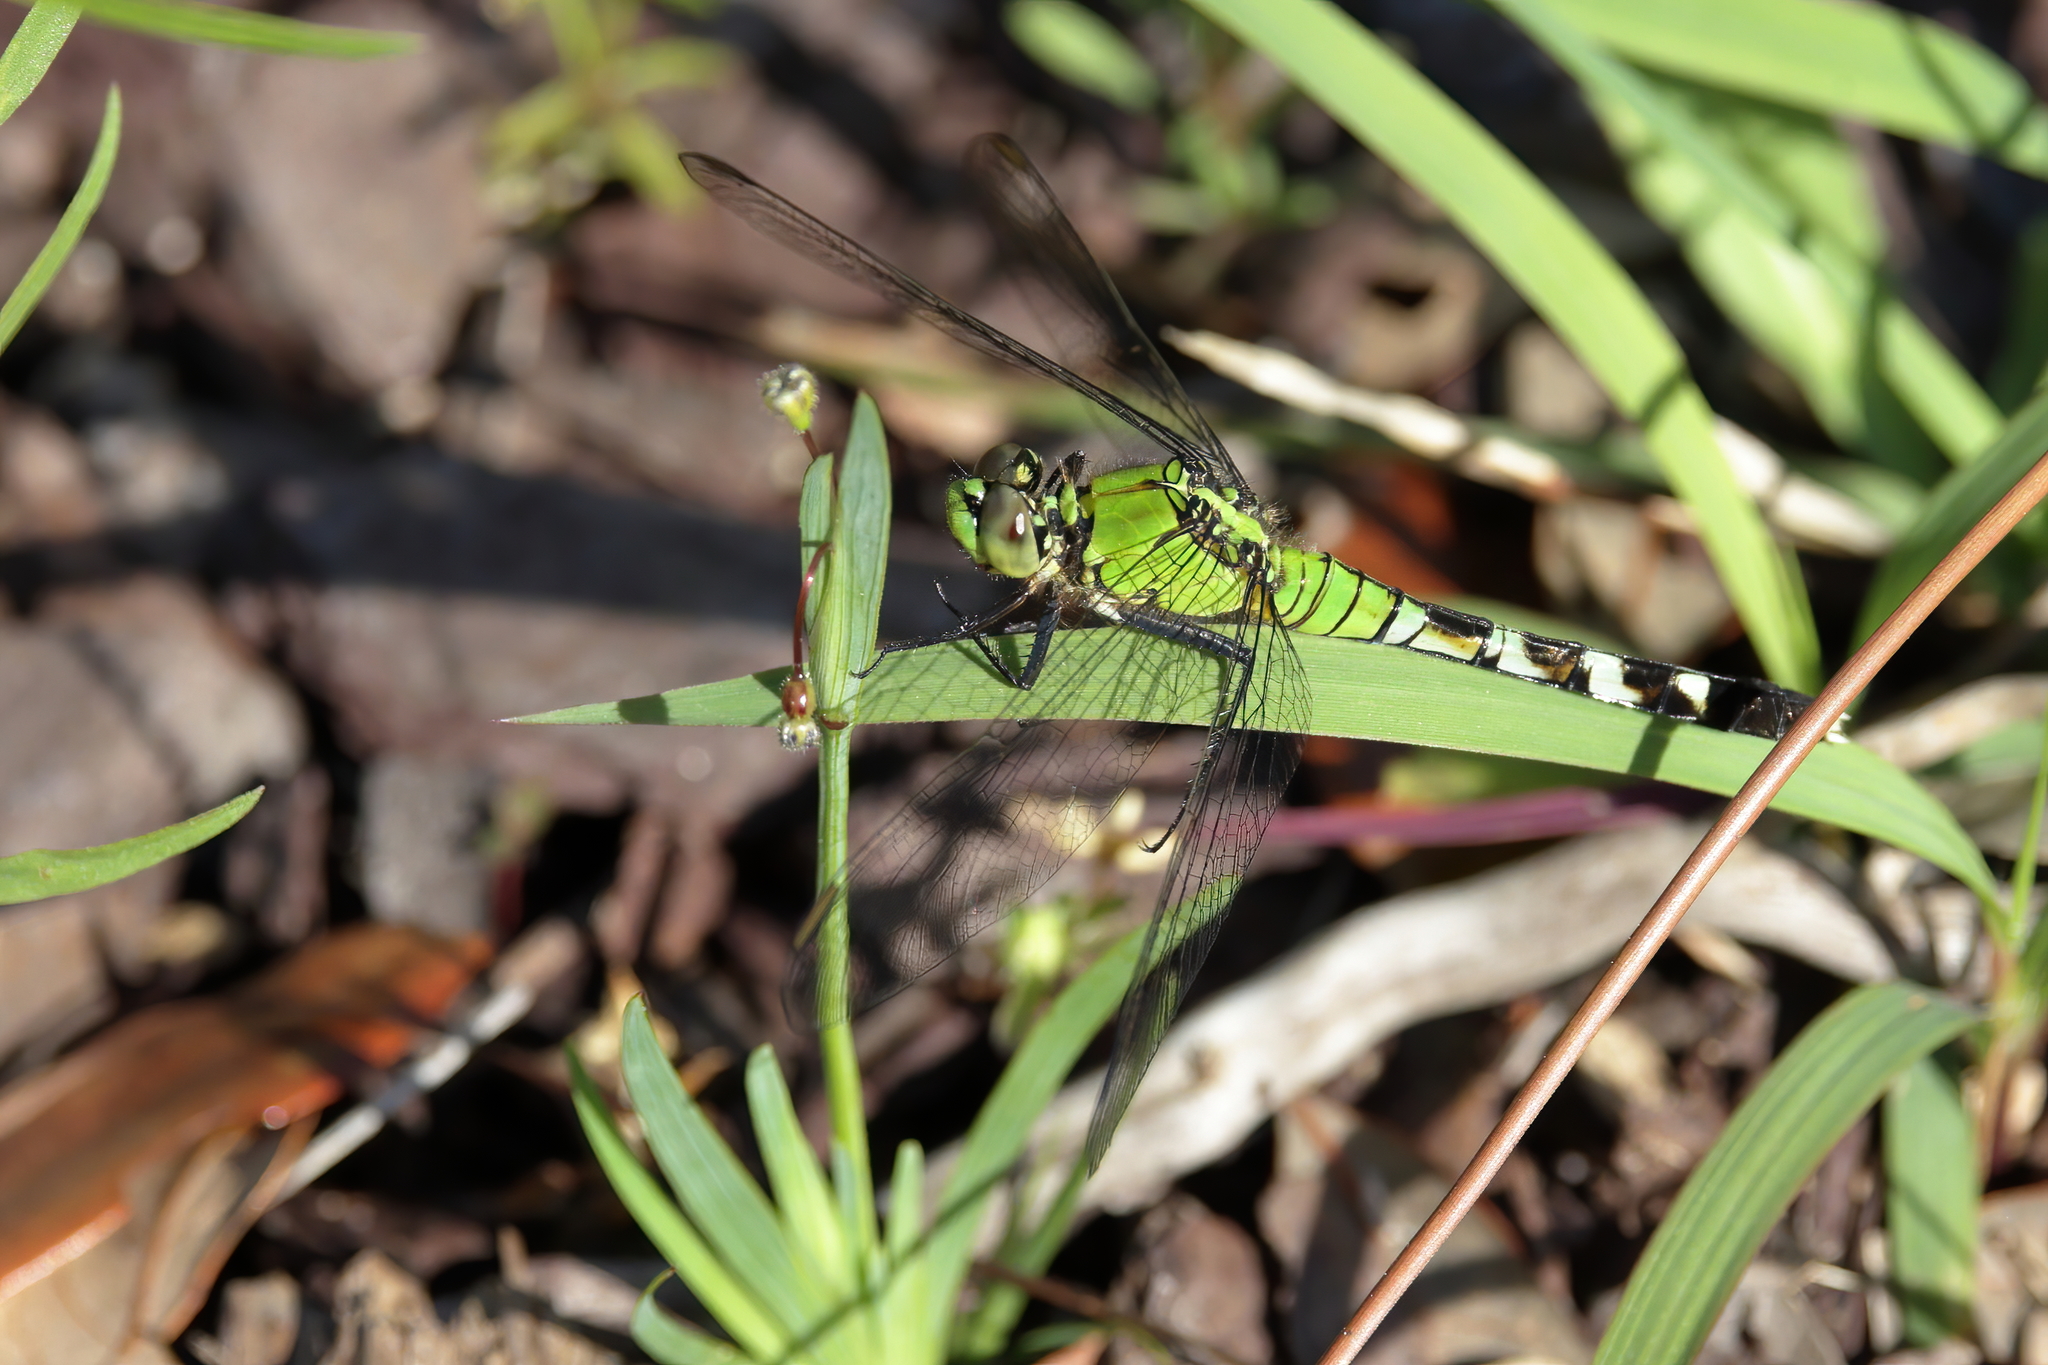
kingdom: Animalia
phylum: Arthropoda
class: Insecta
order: Odonata
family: Libellulidae
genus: Erythemis
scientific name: Erythemis simplicicollis
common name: Eastern pondhawk
